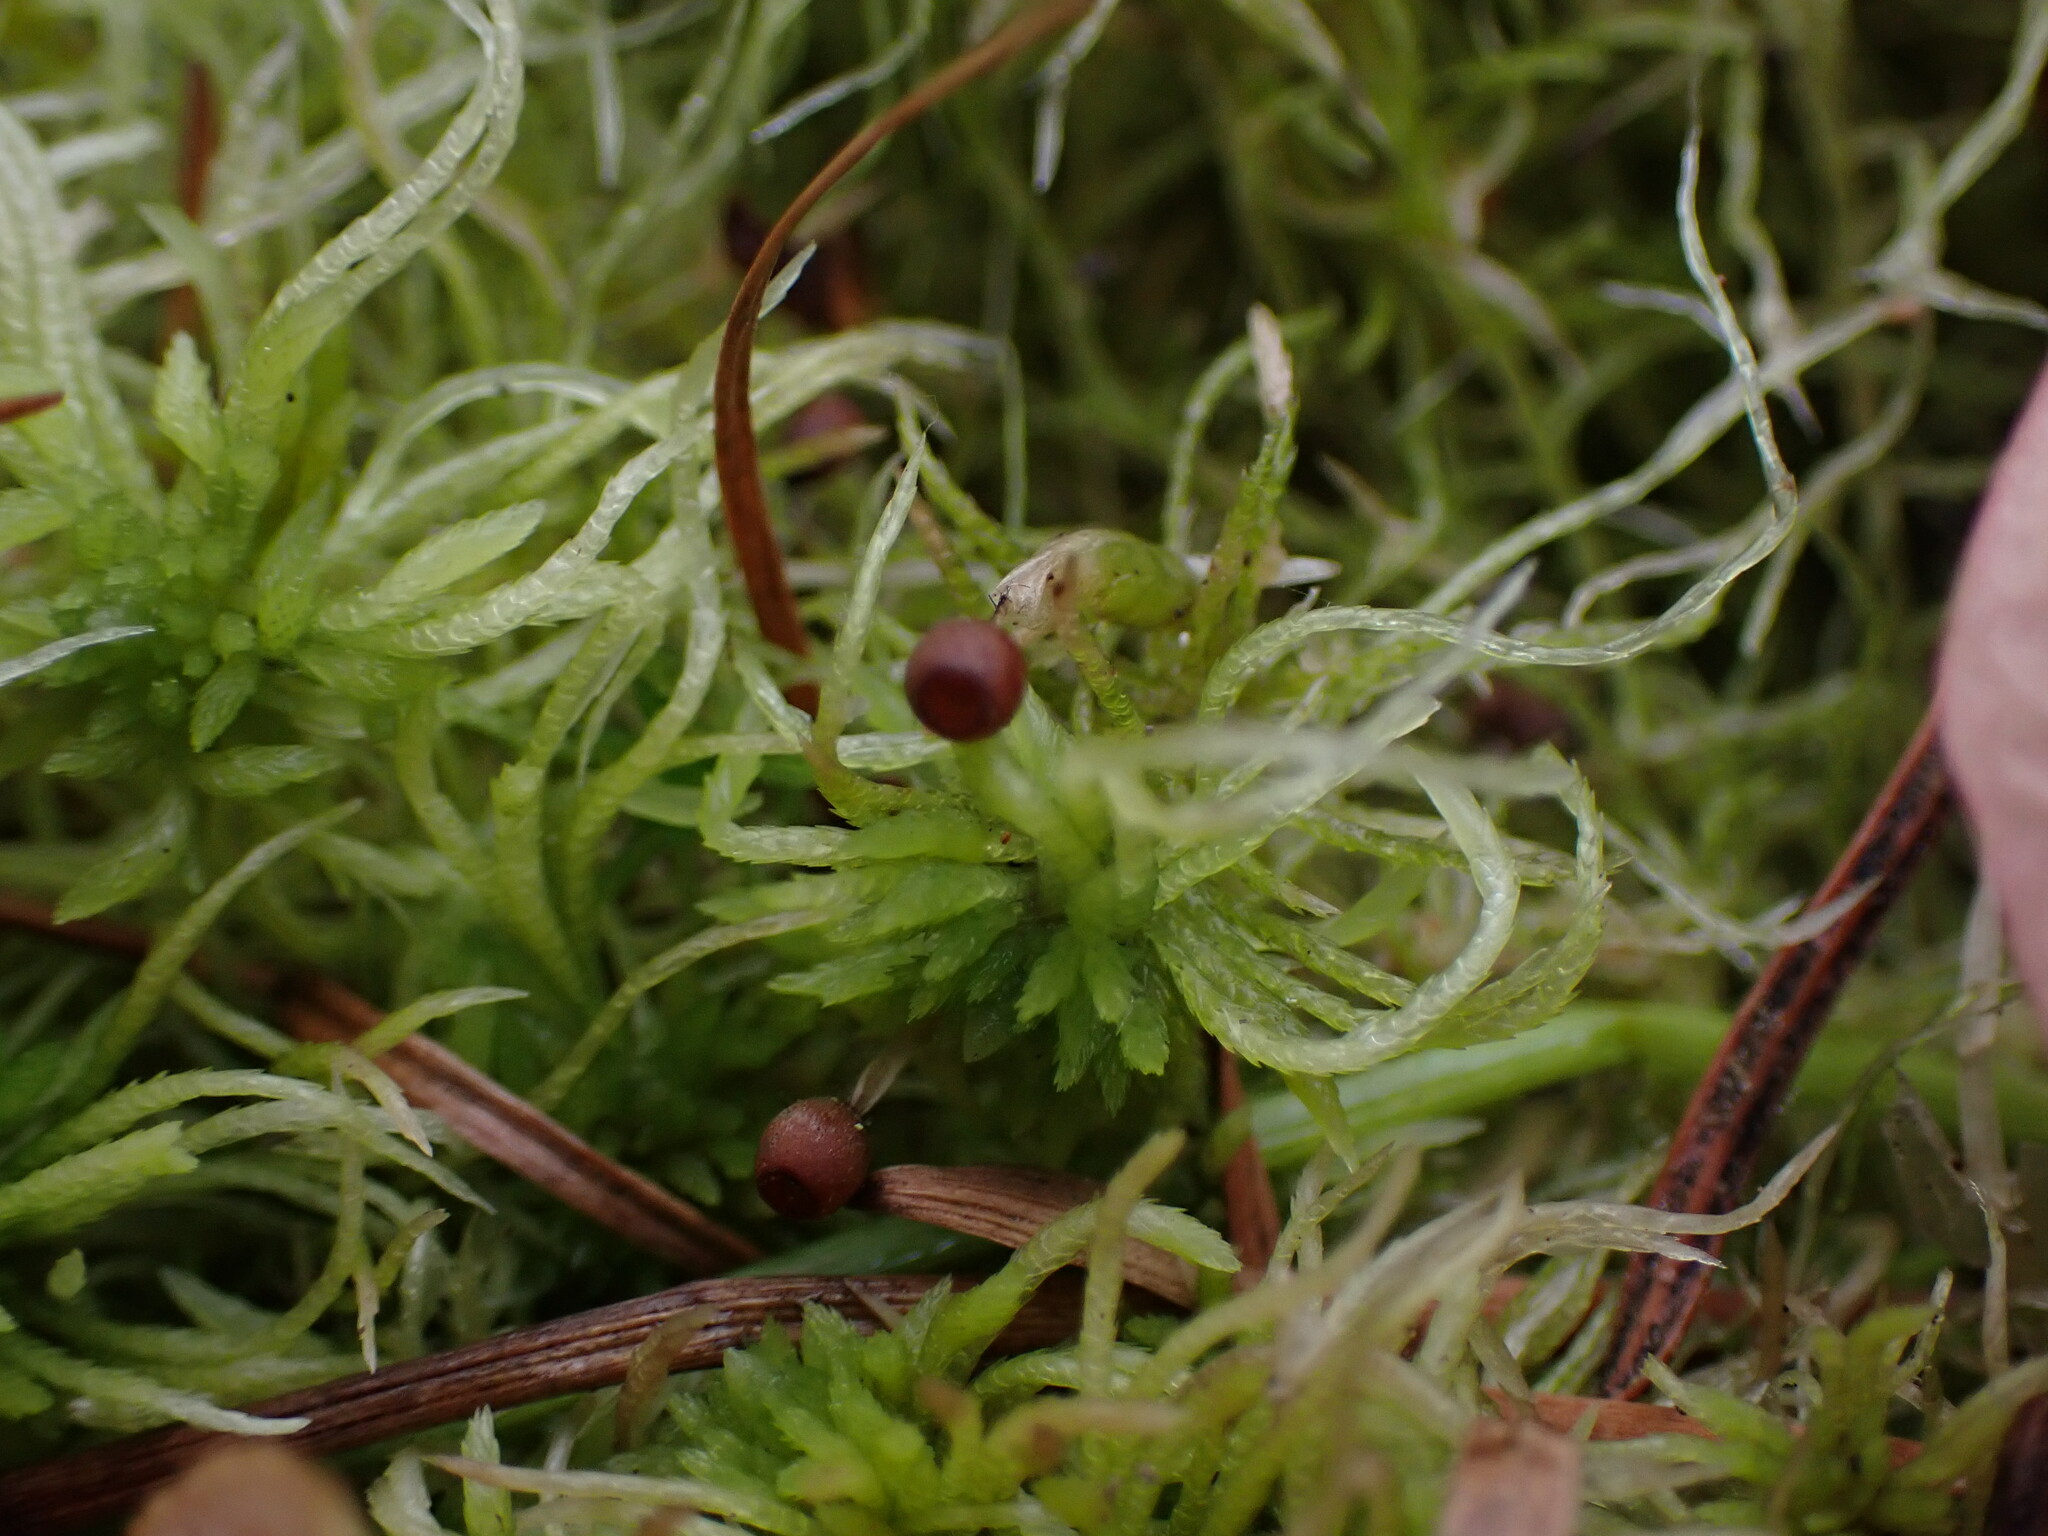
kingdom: Plantae
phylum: Bryophyta
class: Sphagnopsida
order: Sphagnales
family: Sphagnaceae
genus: Sphagnum
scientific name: Sphagnum fimbriatum
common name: Fringed peat moss
